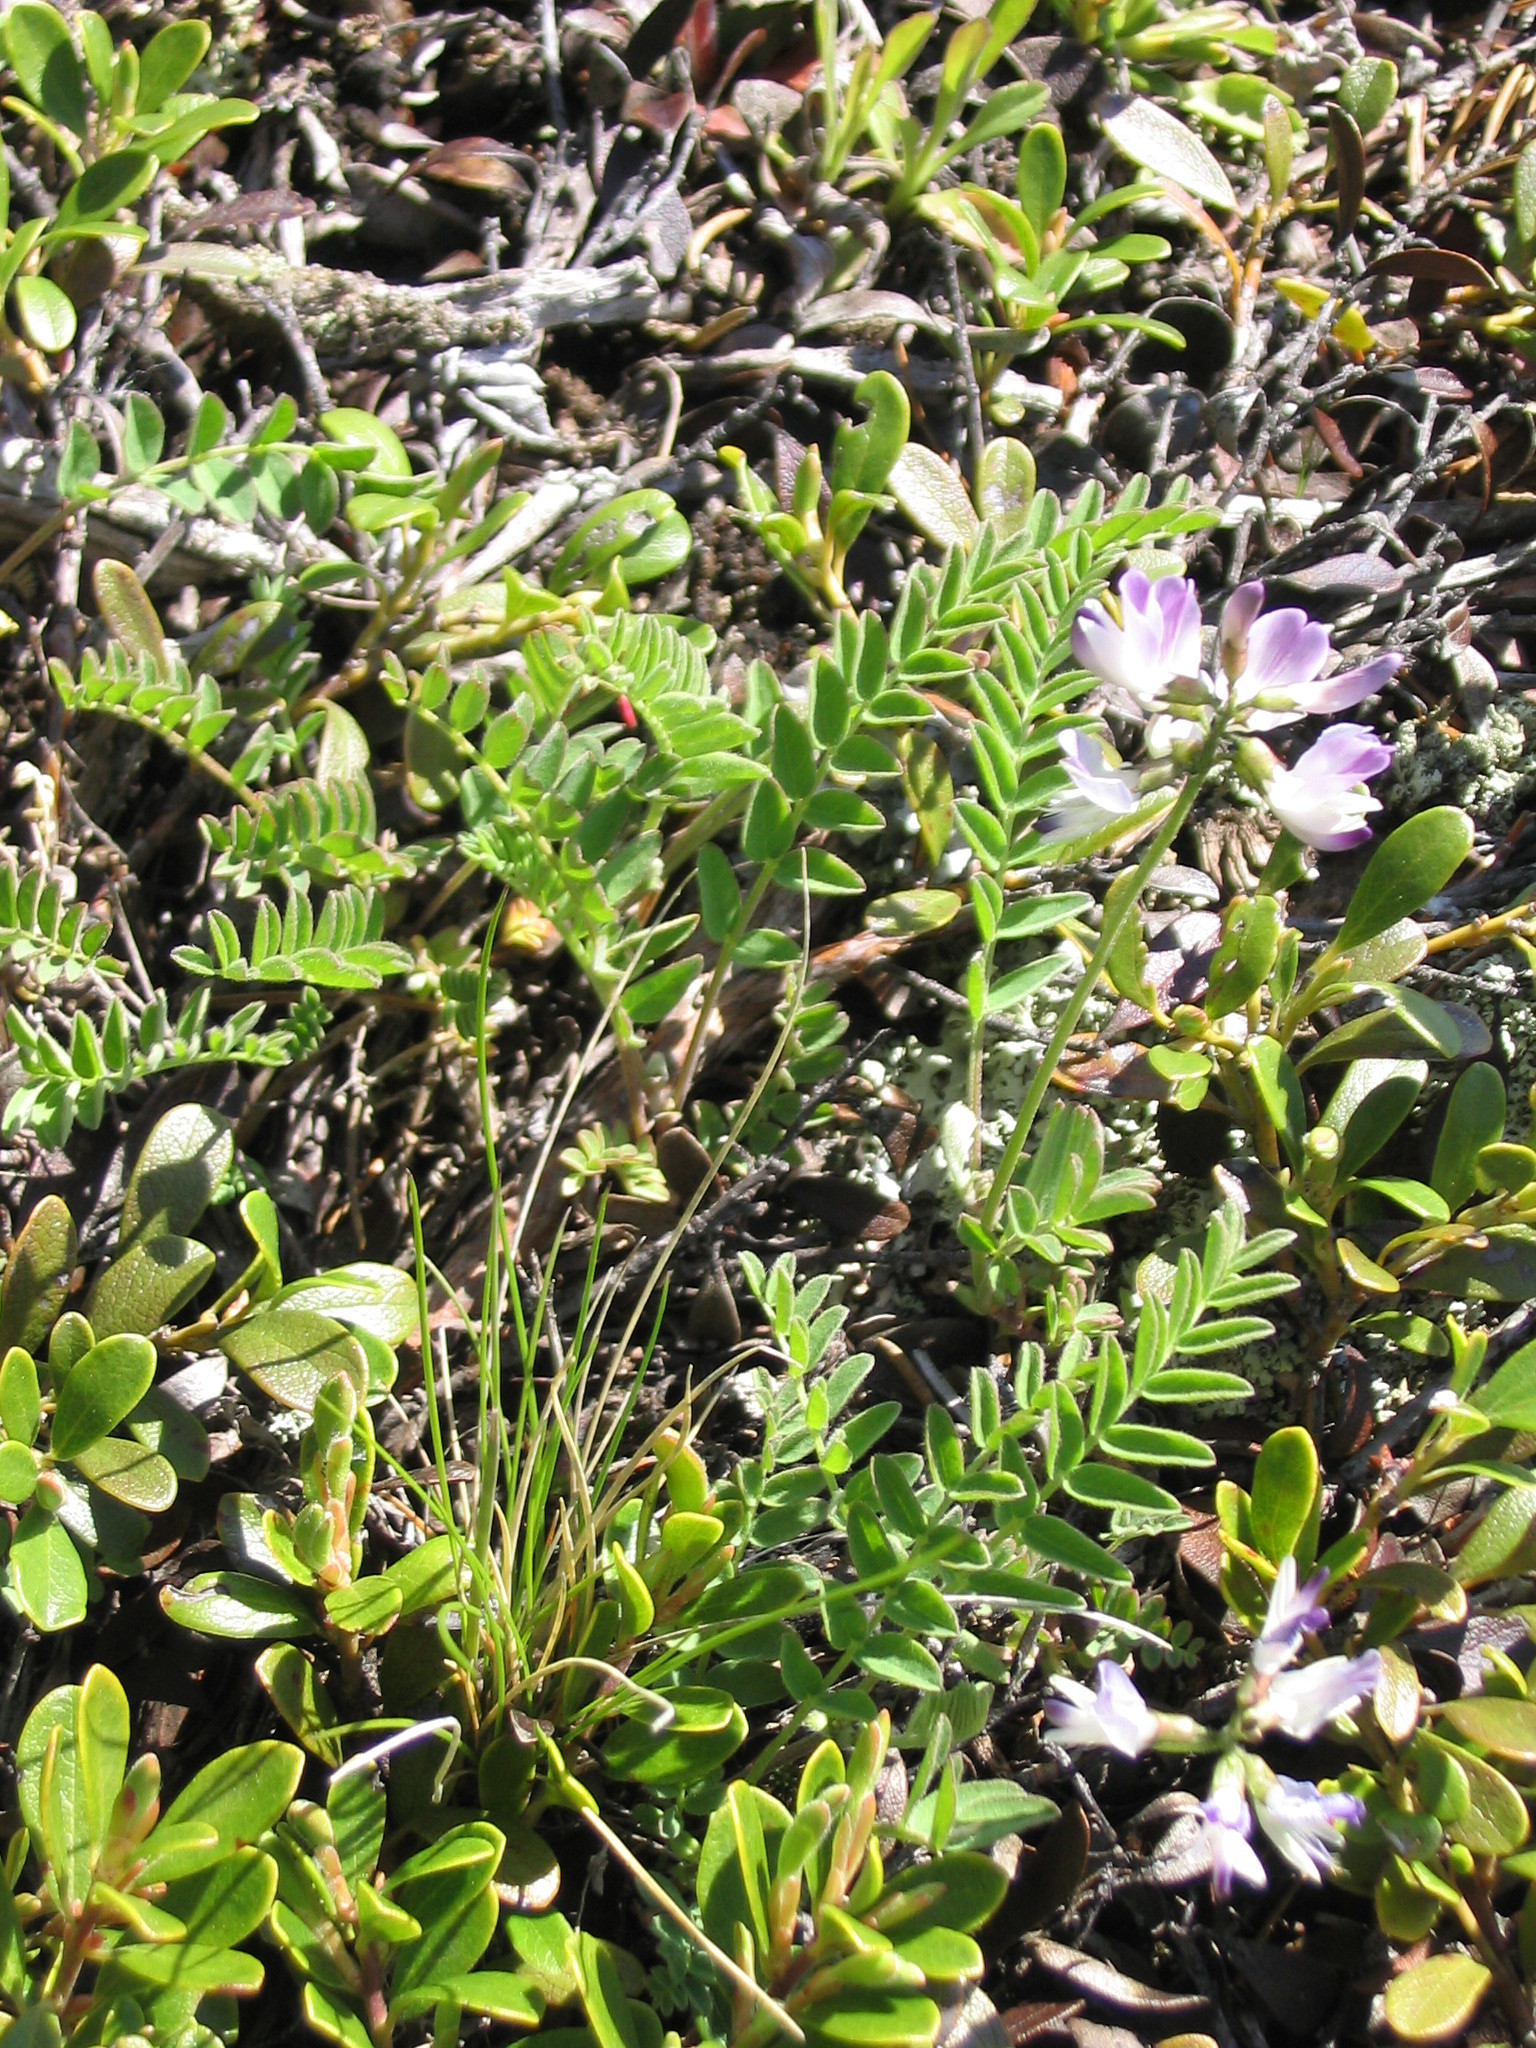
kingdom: Plantae
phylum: Tracheophyta
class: Magnoliopsida
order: Fabales
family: Fabaceae
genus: Astragalus
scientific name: Astragalus alpinus
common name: Alpine milk-vetch
